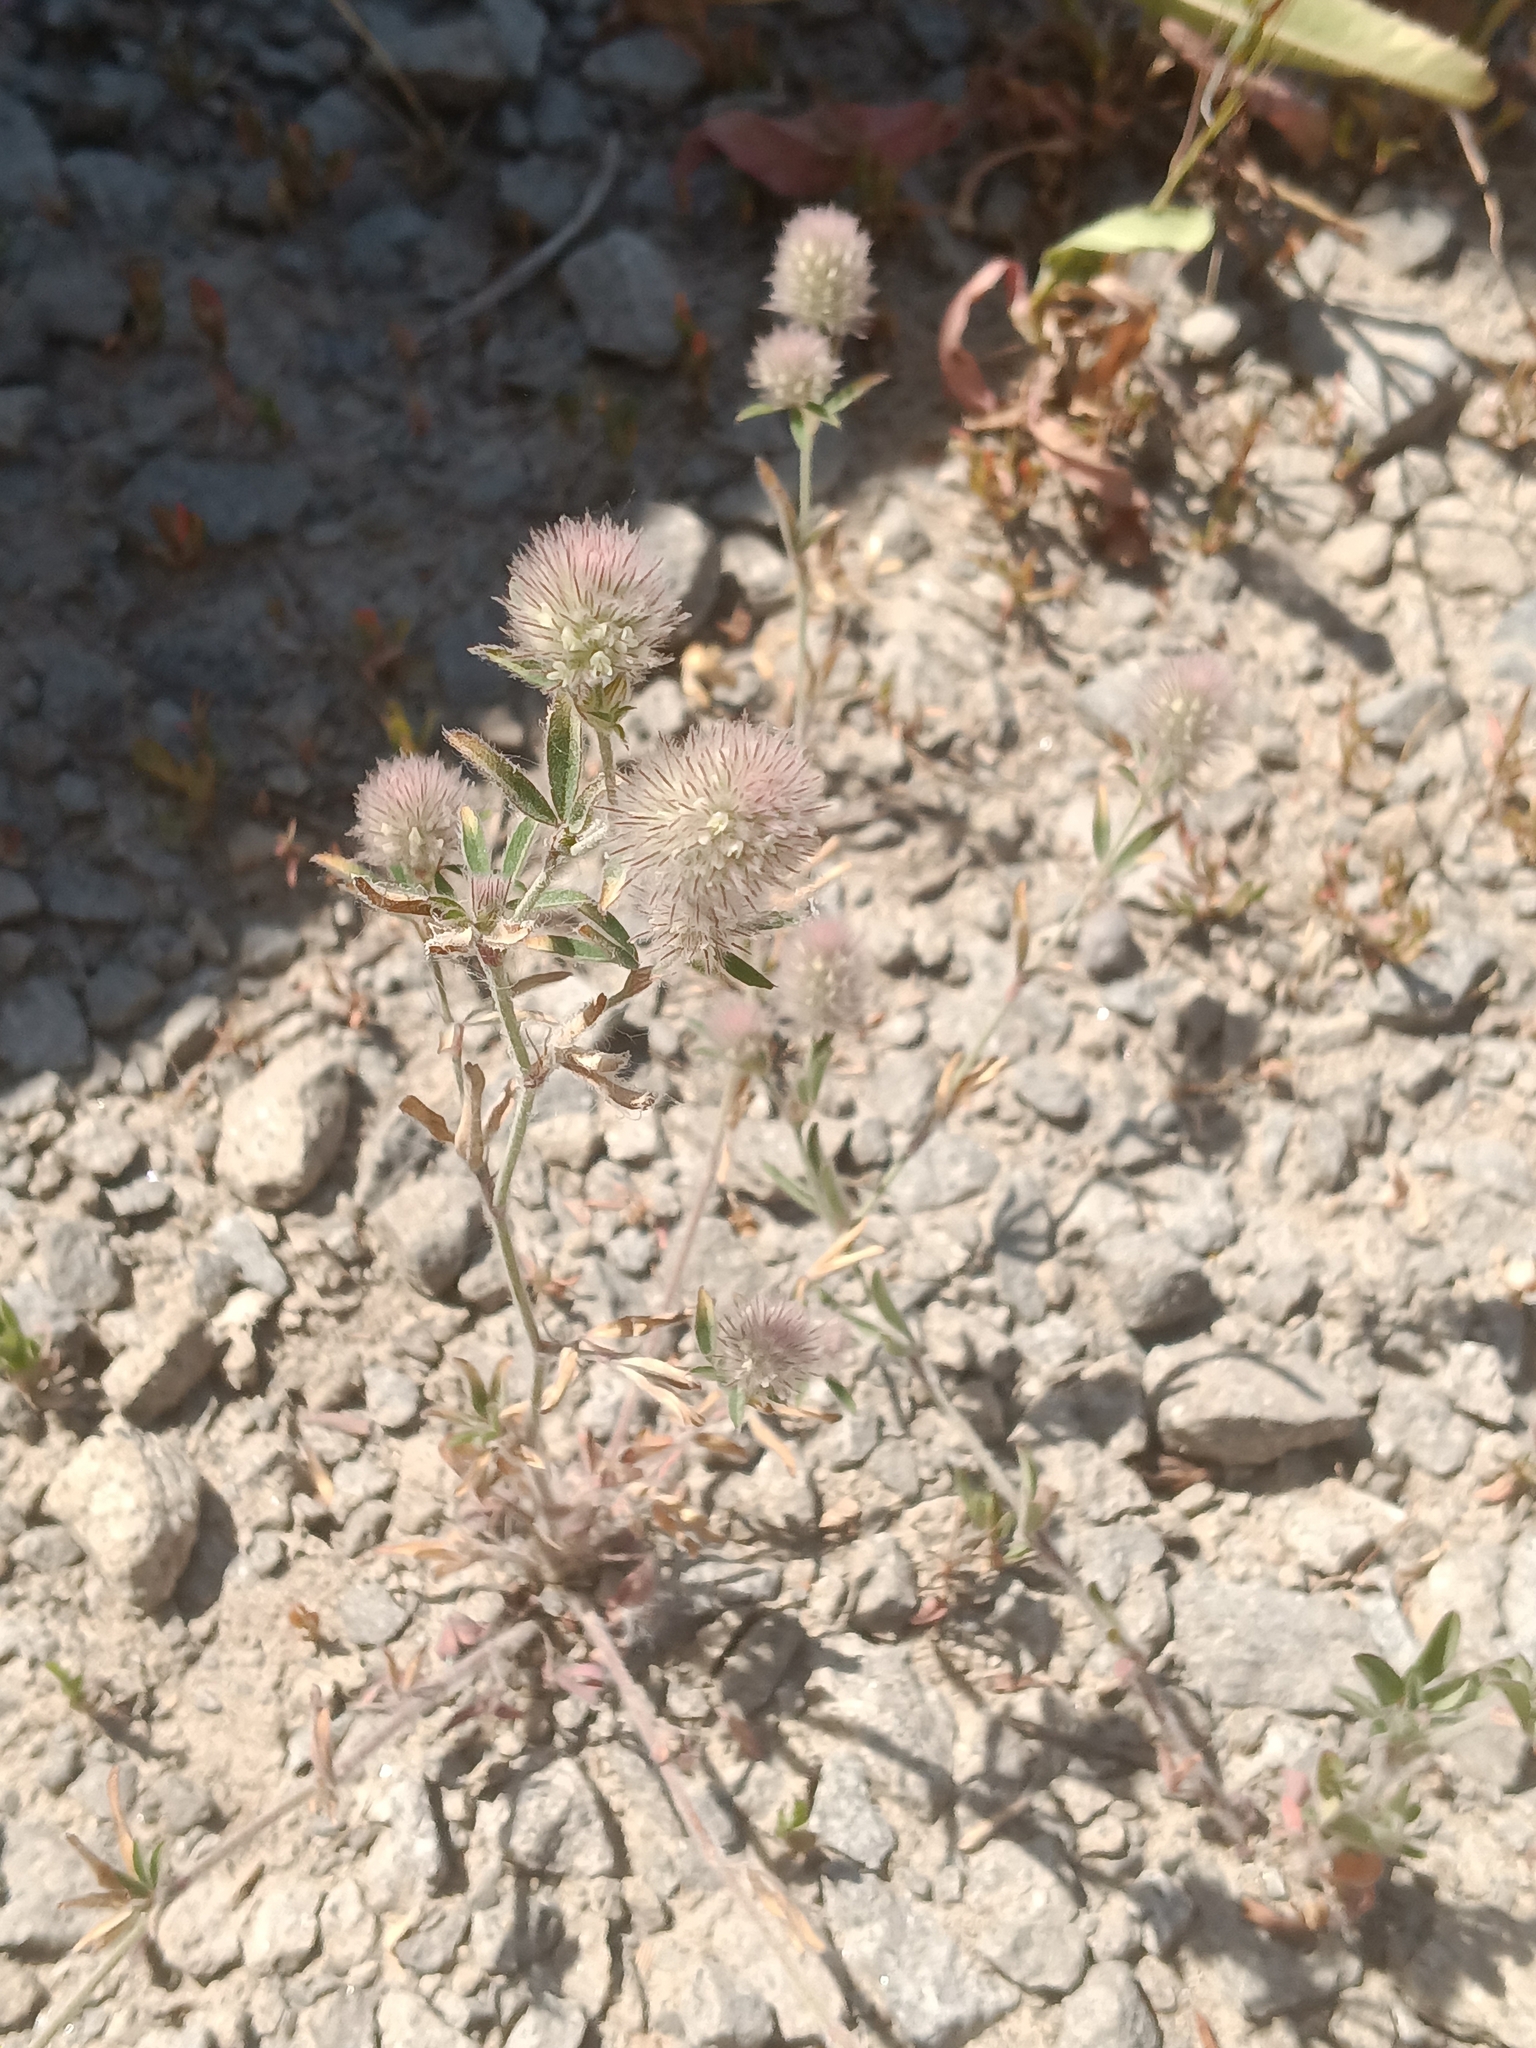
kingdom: Plantae
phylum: Tracheophyta
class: Magnoliopsida
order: Fabales
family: Fabaceae
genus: Trifolium
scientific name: Trifolium arvense
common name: Hare's-foot clover
